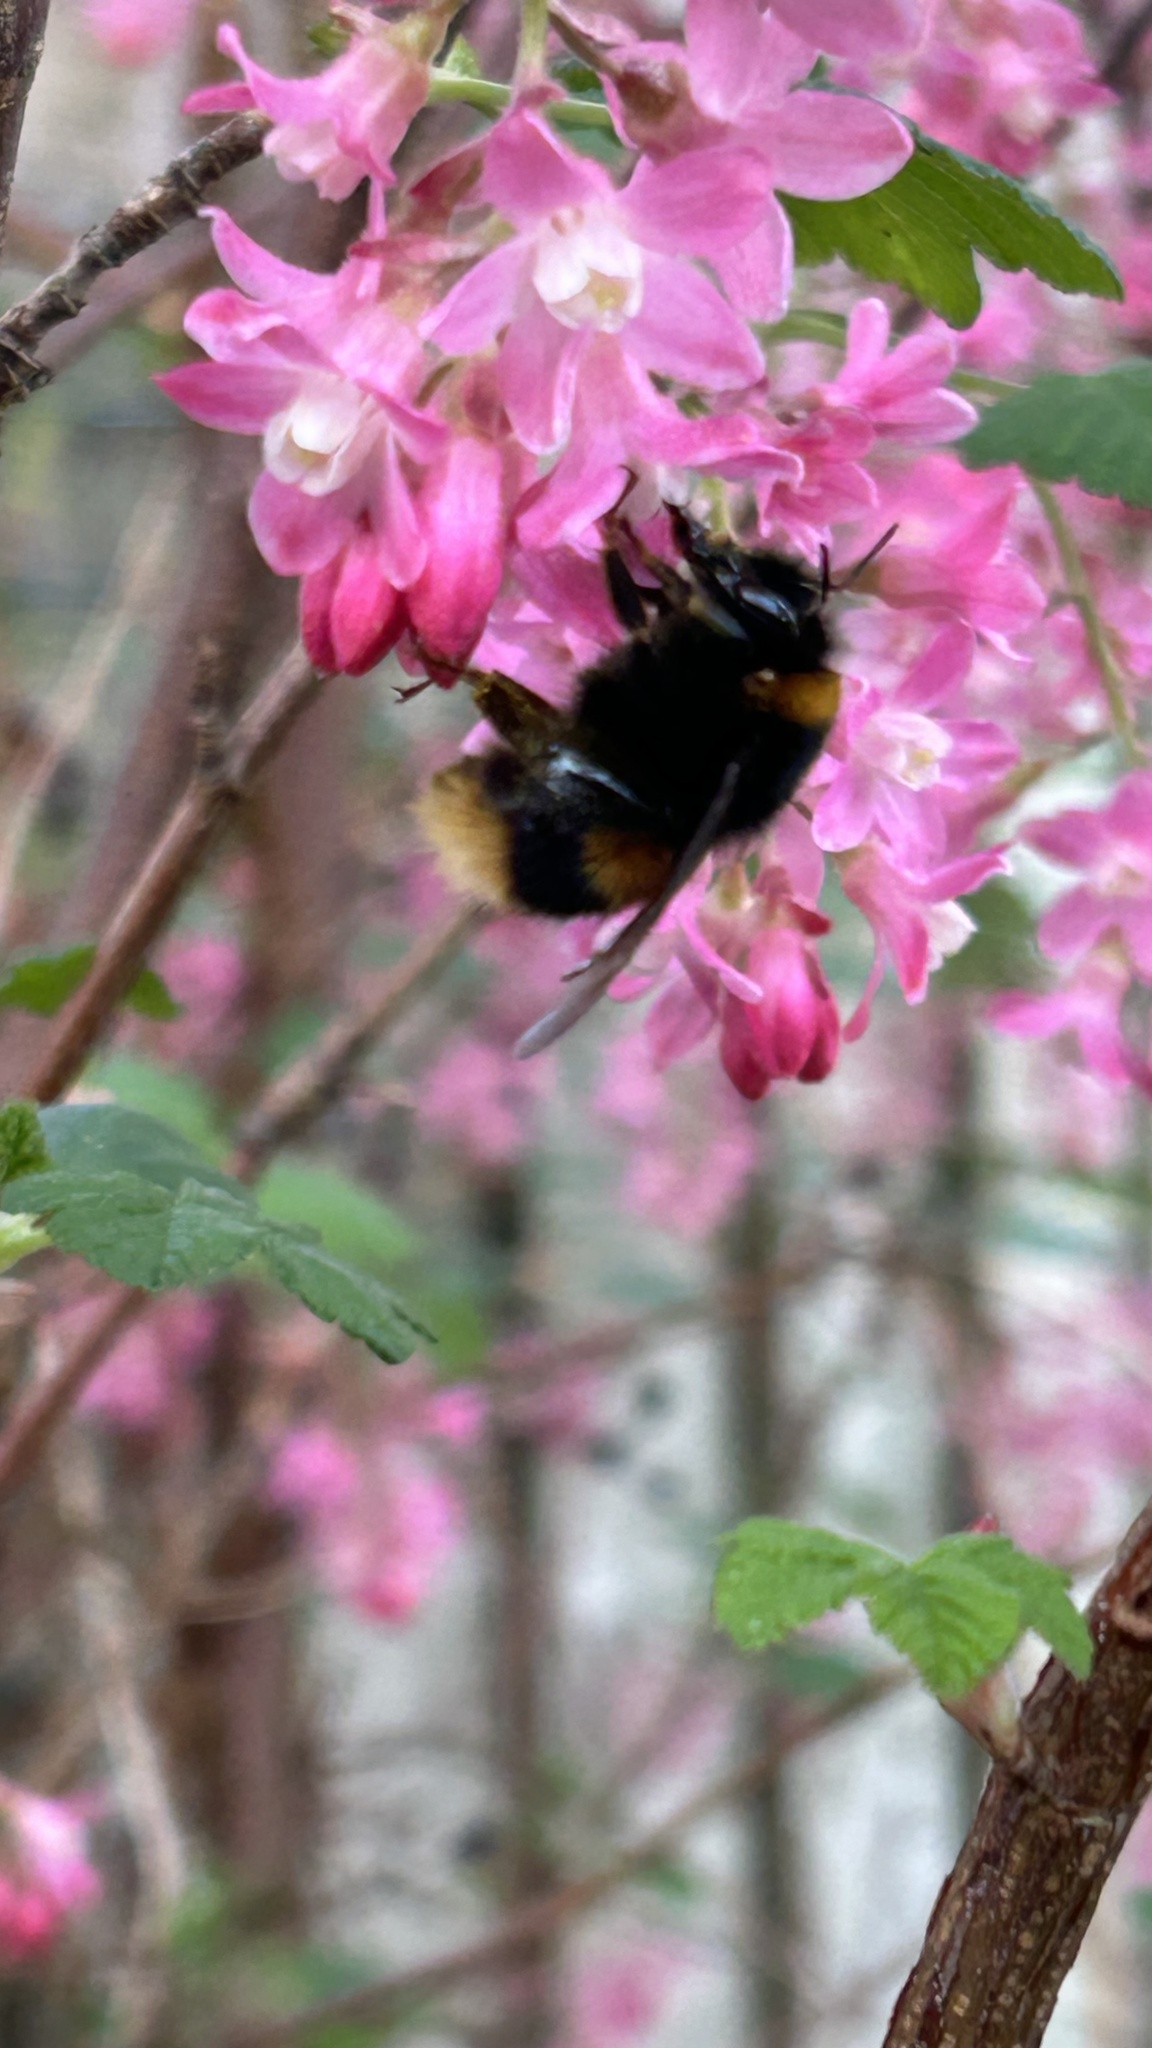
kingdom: Animalia
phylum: Arthropoda
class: Insecta
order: Hymenoptera
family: Apidae
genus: Bombus
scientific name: Bombus terrestris
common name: Buff-tailed bumblebee
